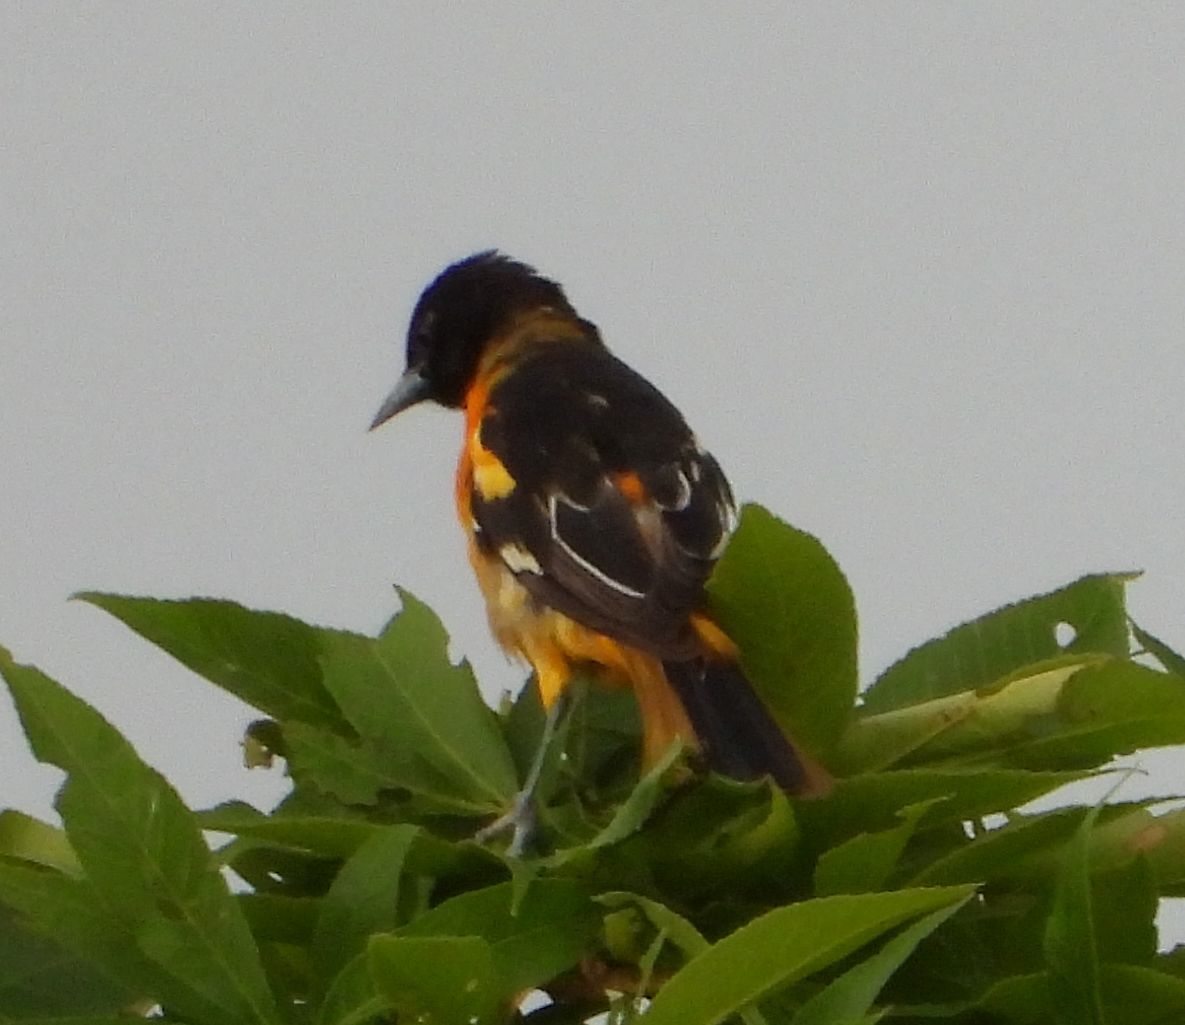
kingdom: Animalia
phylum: Chordata
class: Aves
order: Passeriformes
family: Icteridae
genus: Icterus
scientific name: Icterus galbula
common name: Baltimore oriole
